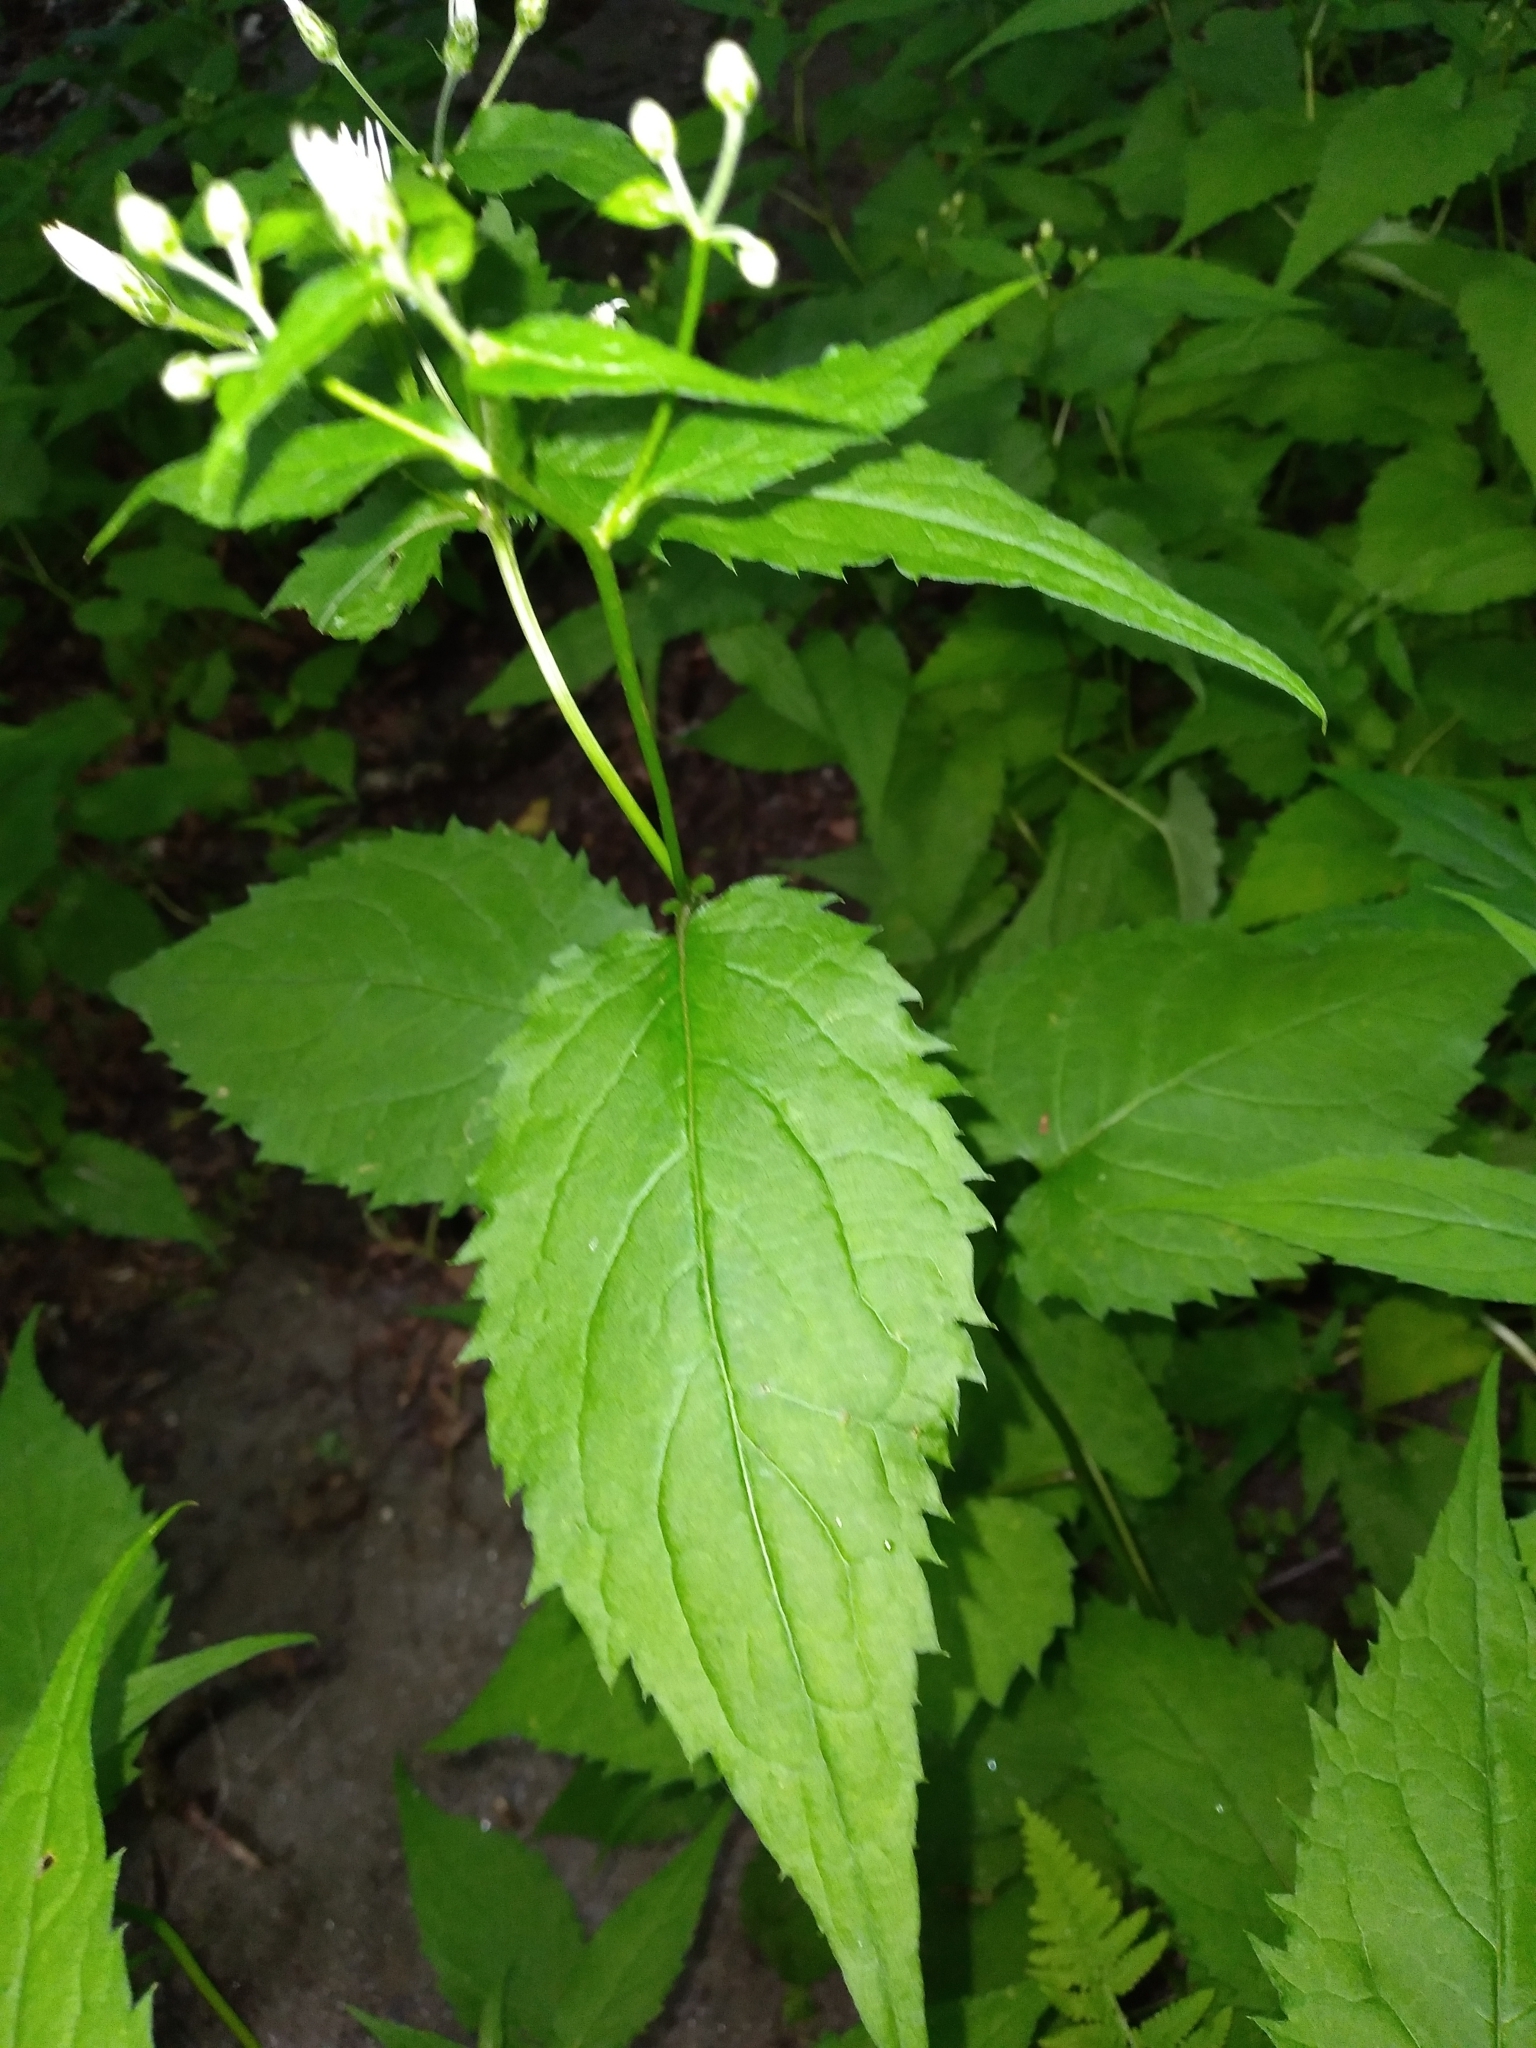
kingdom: Plantae
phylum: Tracheophyta
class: Magnoliopsida
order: Asterales
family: Asteraceae
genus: Eurybia
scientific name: Eurybia chlorolepis
